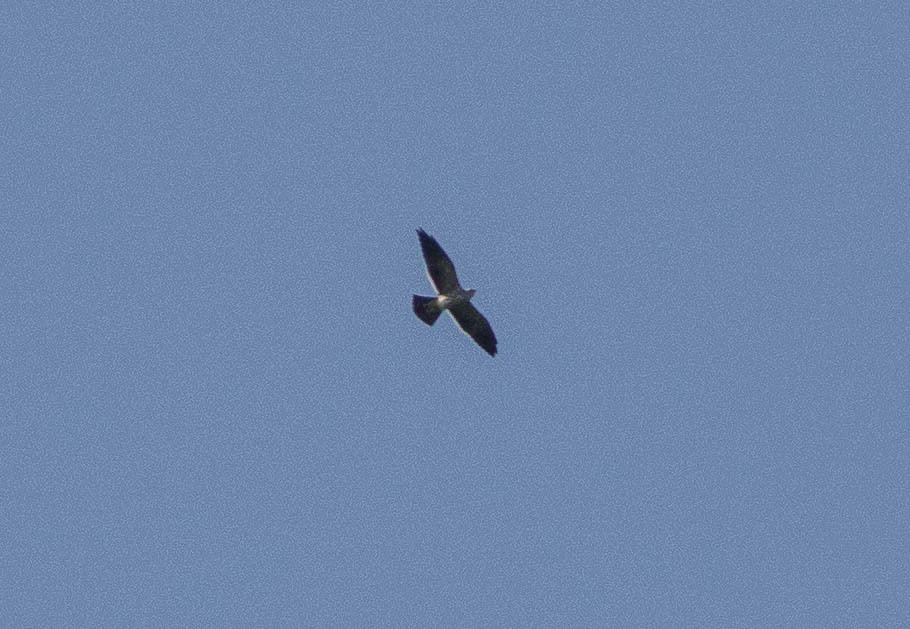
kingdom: Animalia
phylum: Chordata
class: Aves
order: Accipitriformes
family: Accipitridae
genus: Ictinia
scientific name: Ictinia mississippiensis
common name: Mississippi kite
